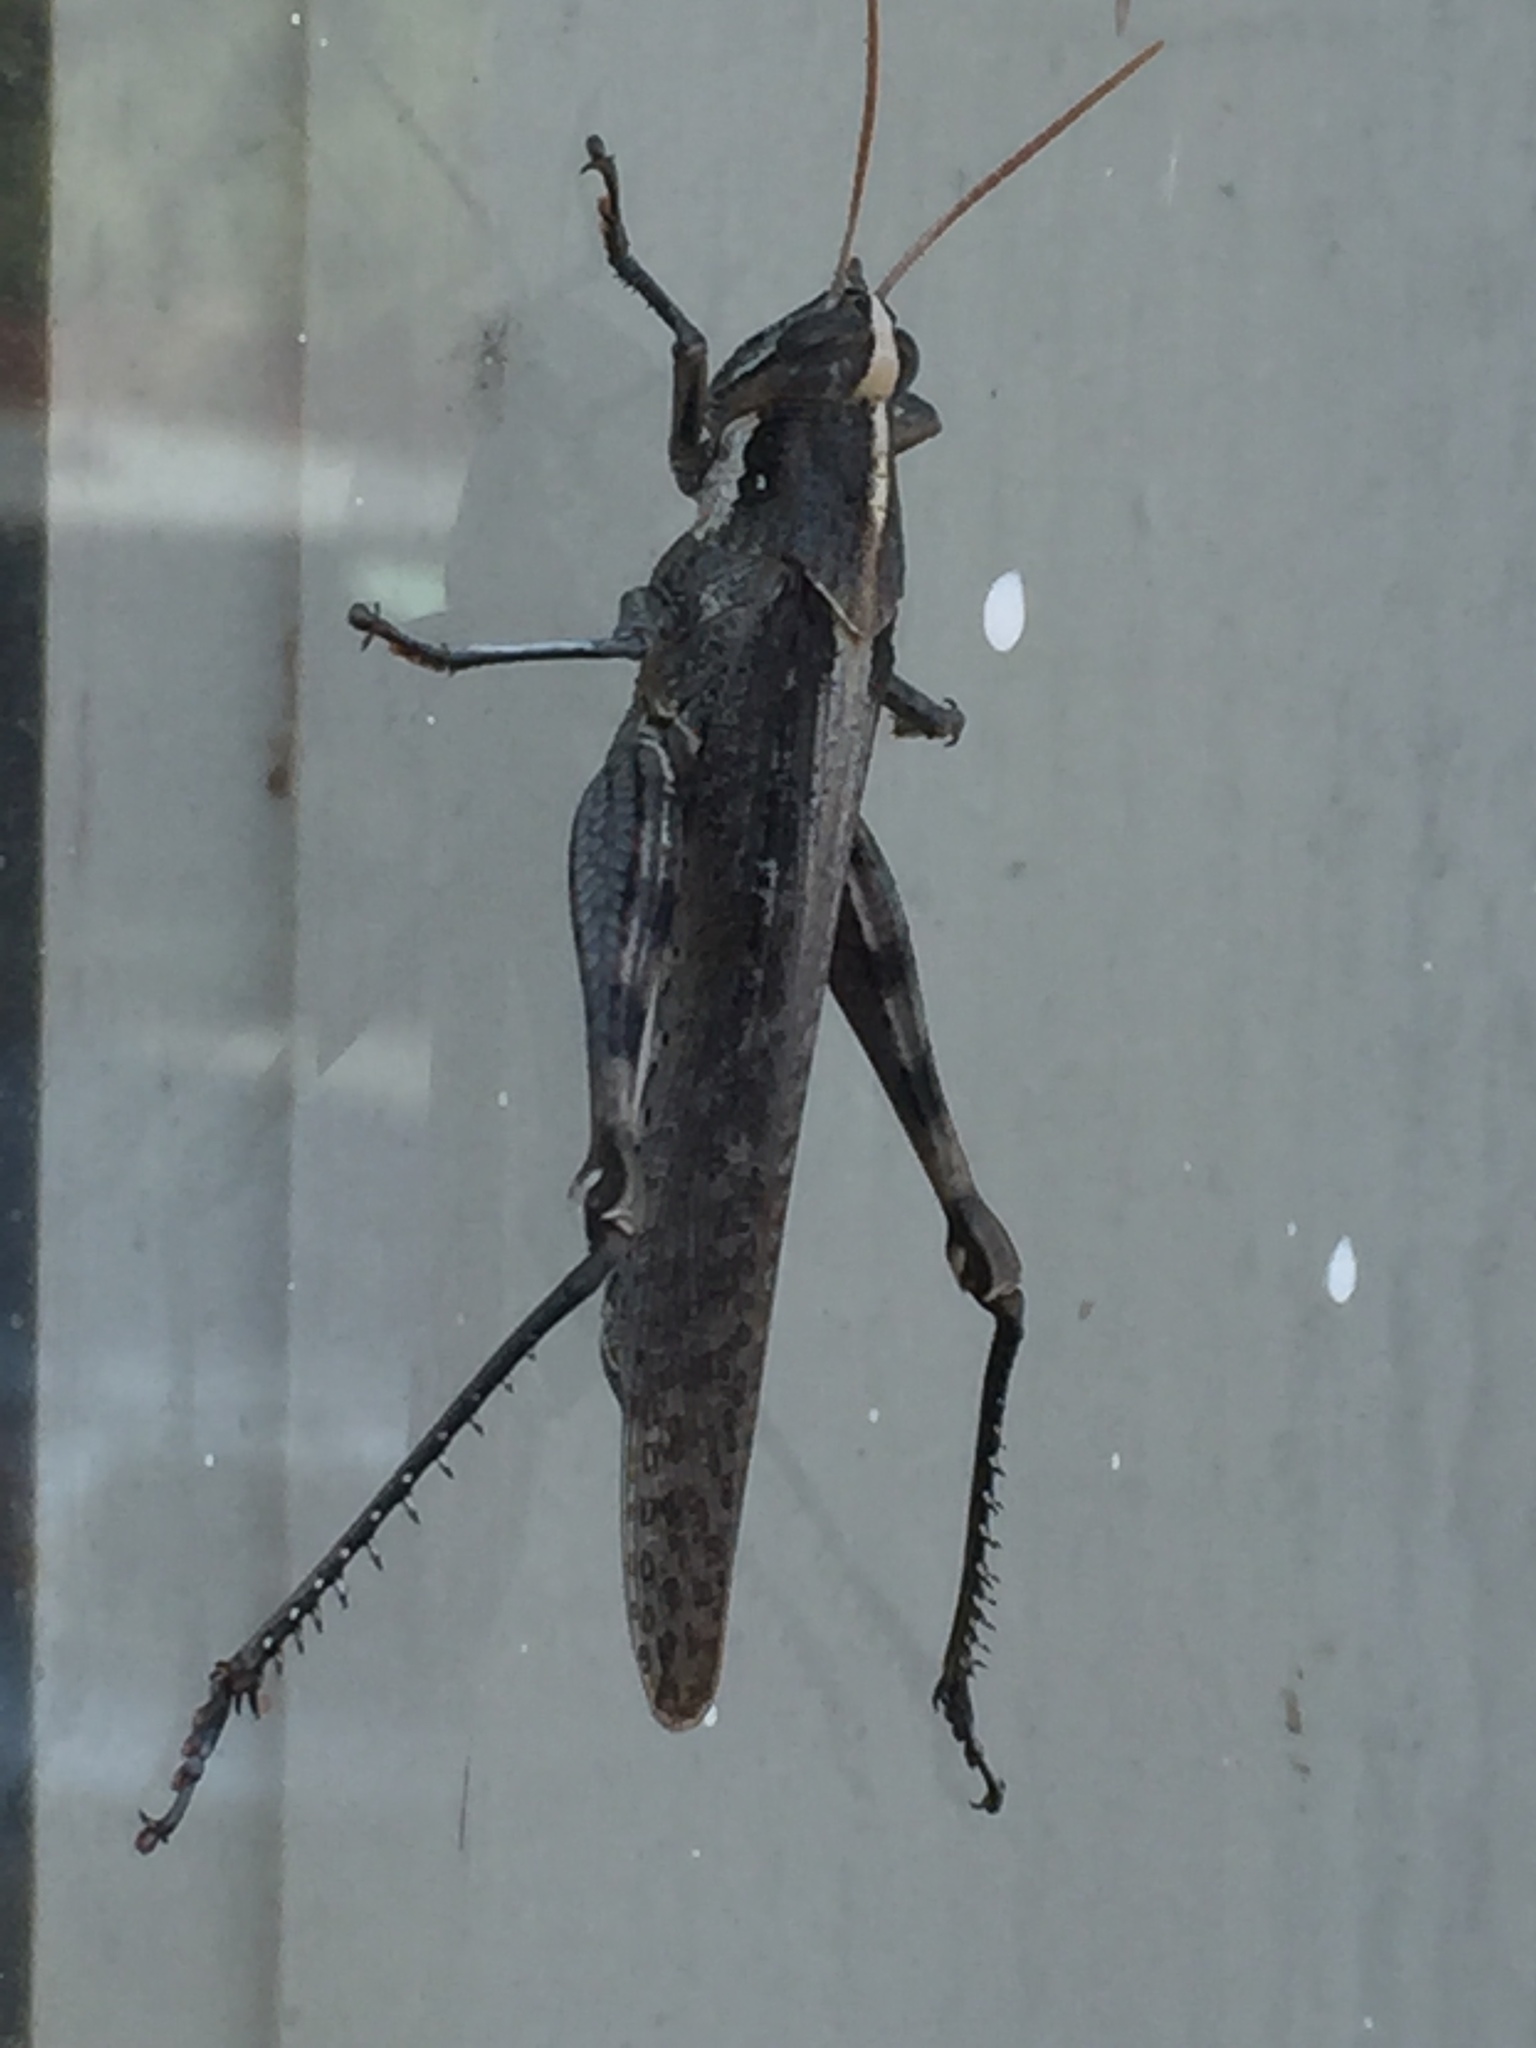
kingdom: Animalia
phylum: Arthropoda
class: Insecta
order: Orthoptera
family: Acrididae
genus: Schistocerca
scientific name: Schistocerca nitens
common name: Vagrant grasshopper
